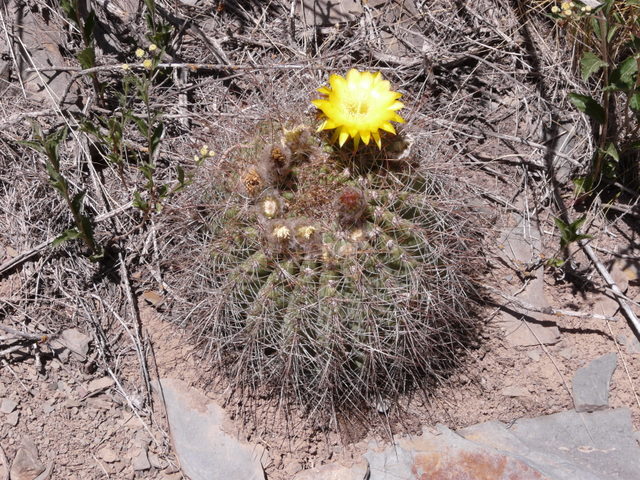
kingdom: Plantae
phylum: Tracheophyta
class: Magnoliopsida
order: Caryophyllales
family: Cactaceae
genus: Soehrensia
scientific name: Soehrensia formosa
